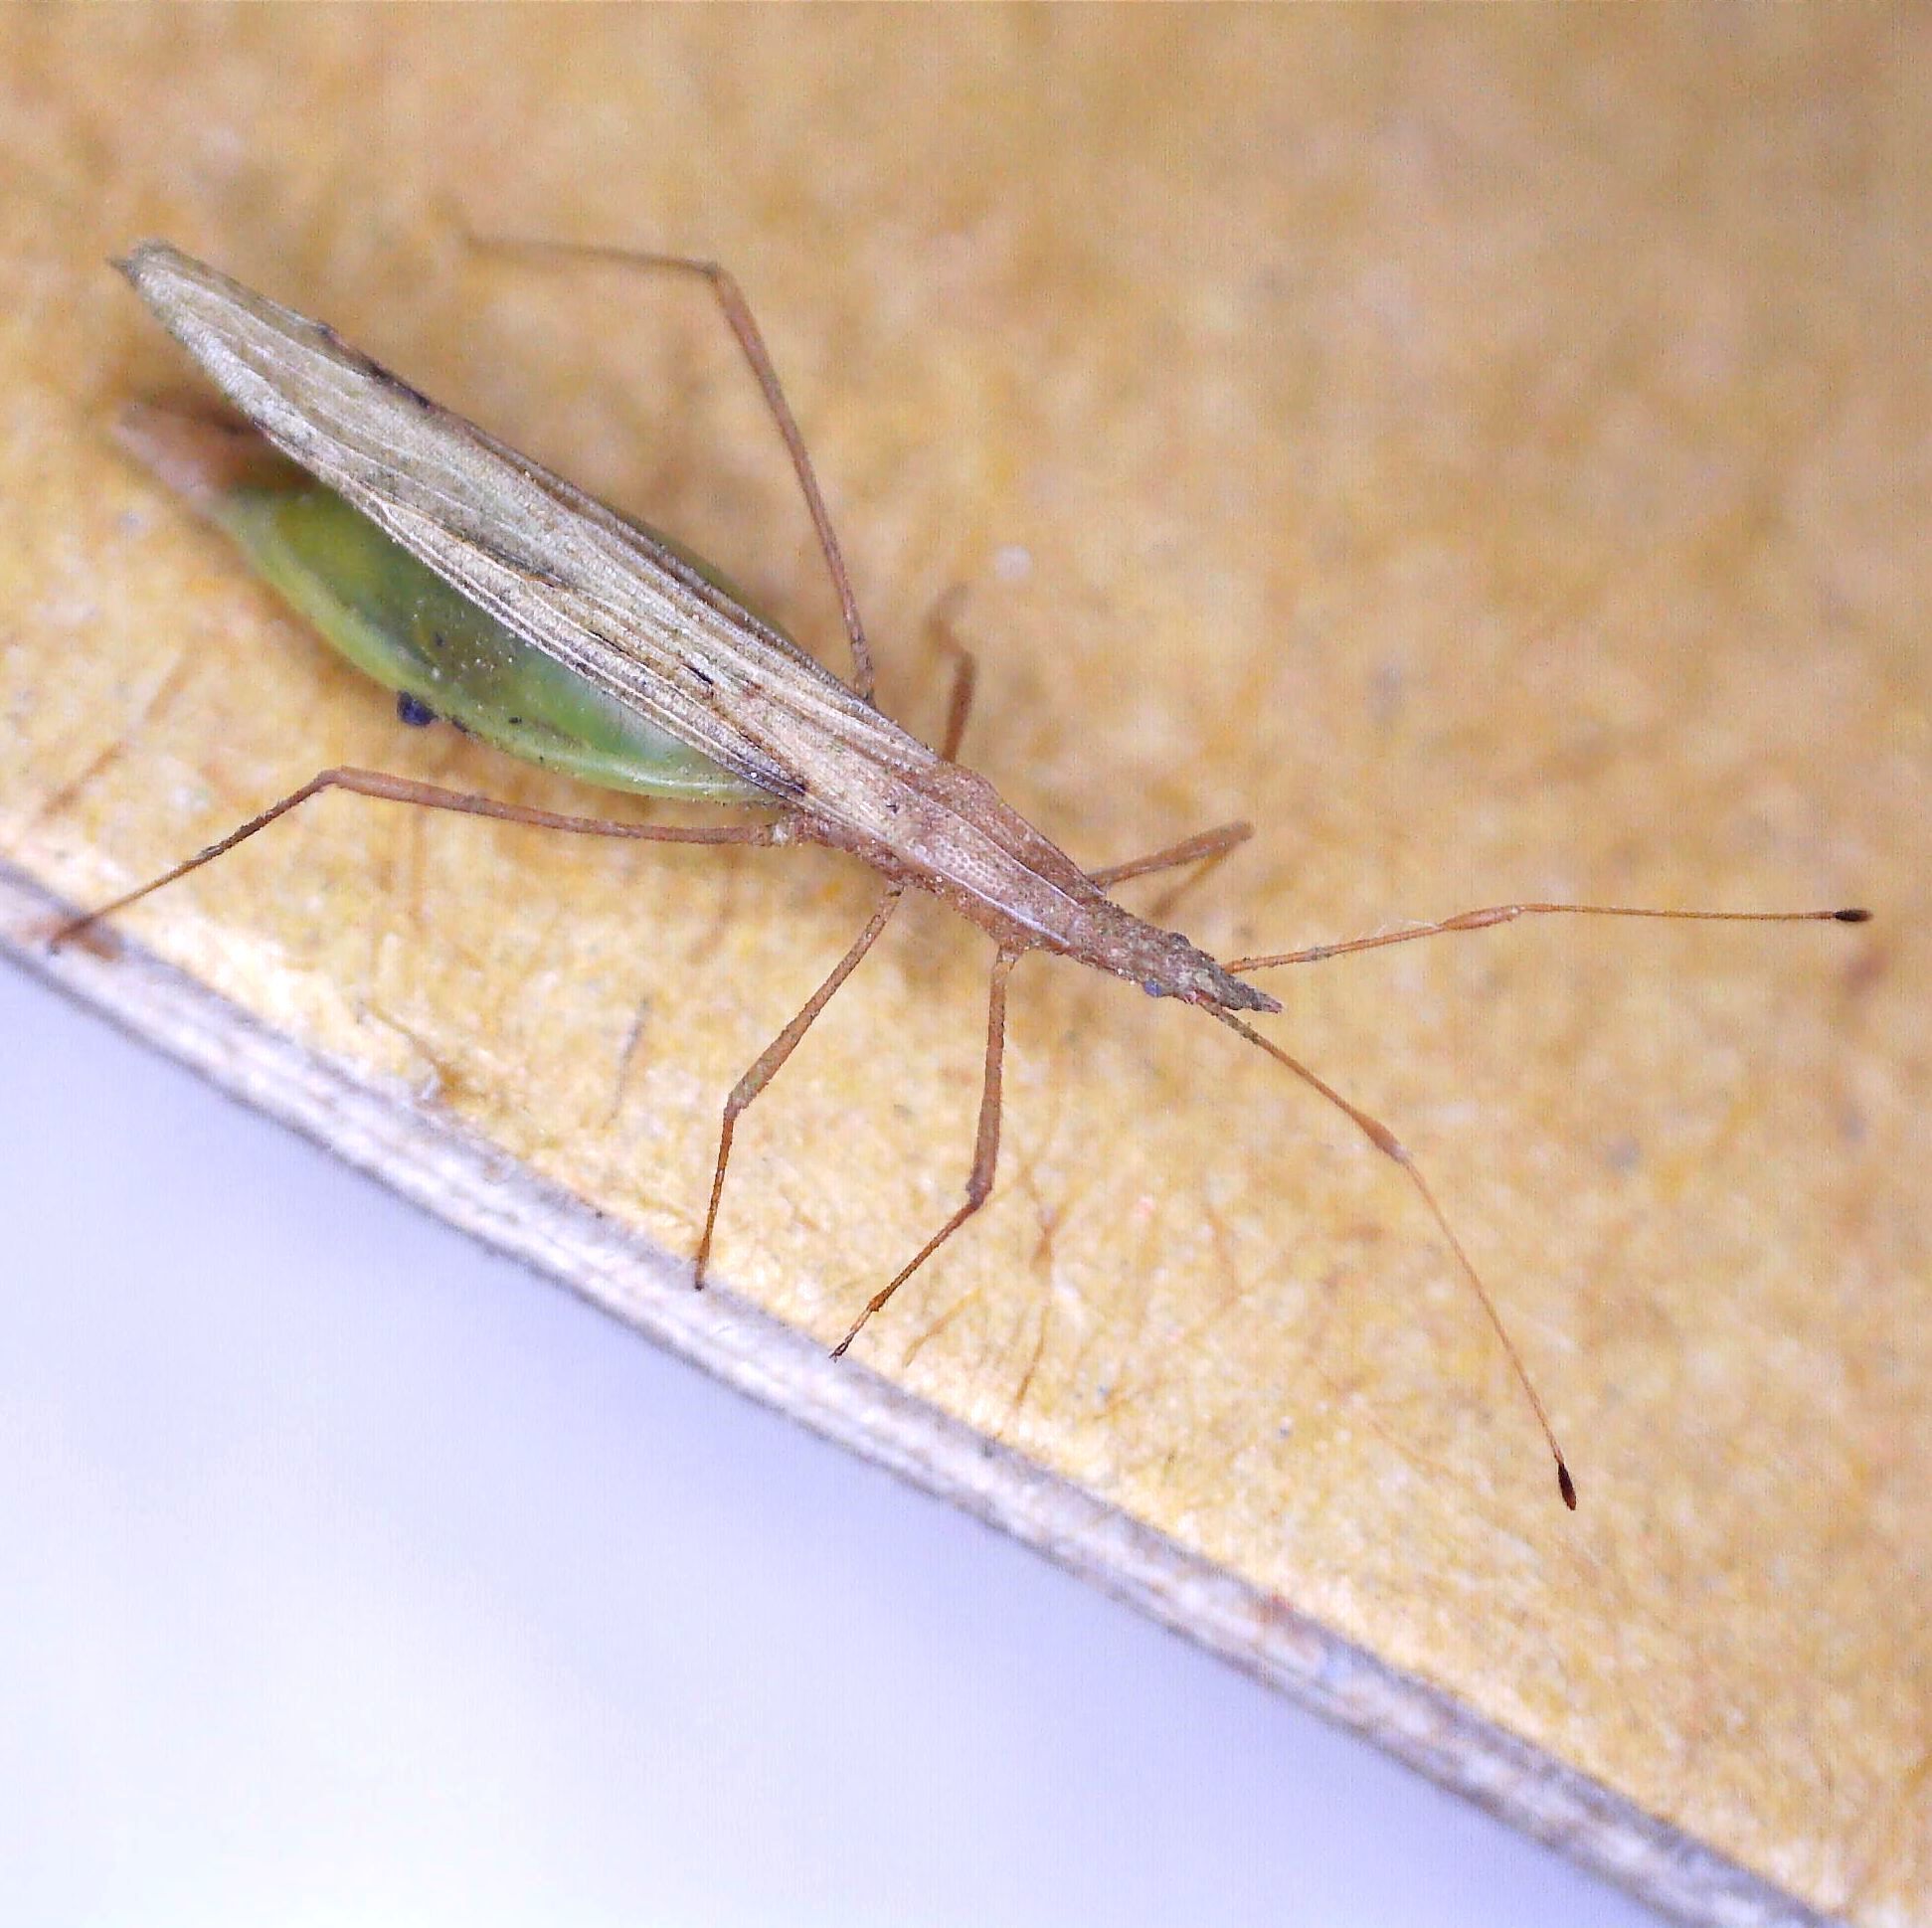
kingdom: Animalia
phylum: Arthropoda
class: Insecta
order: Hemiptera
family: Berytidae
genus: Berytinus
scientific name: Berytinus hirticornis
